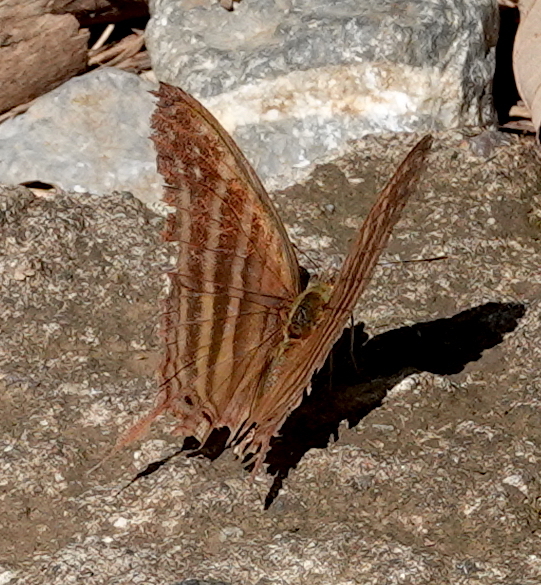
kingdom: Animalia
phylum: Arthropoda
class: Insecta
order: Lepidoptera
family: Nymphalidae
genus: Marpesia
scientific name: Marpesia chiron
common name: Many-banded daggerwing
